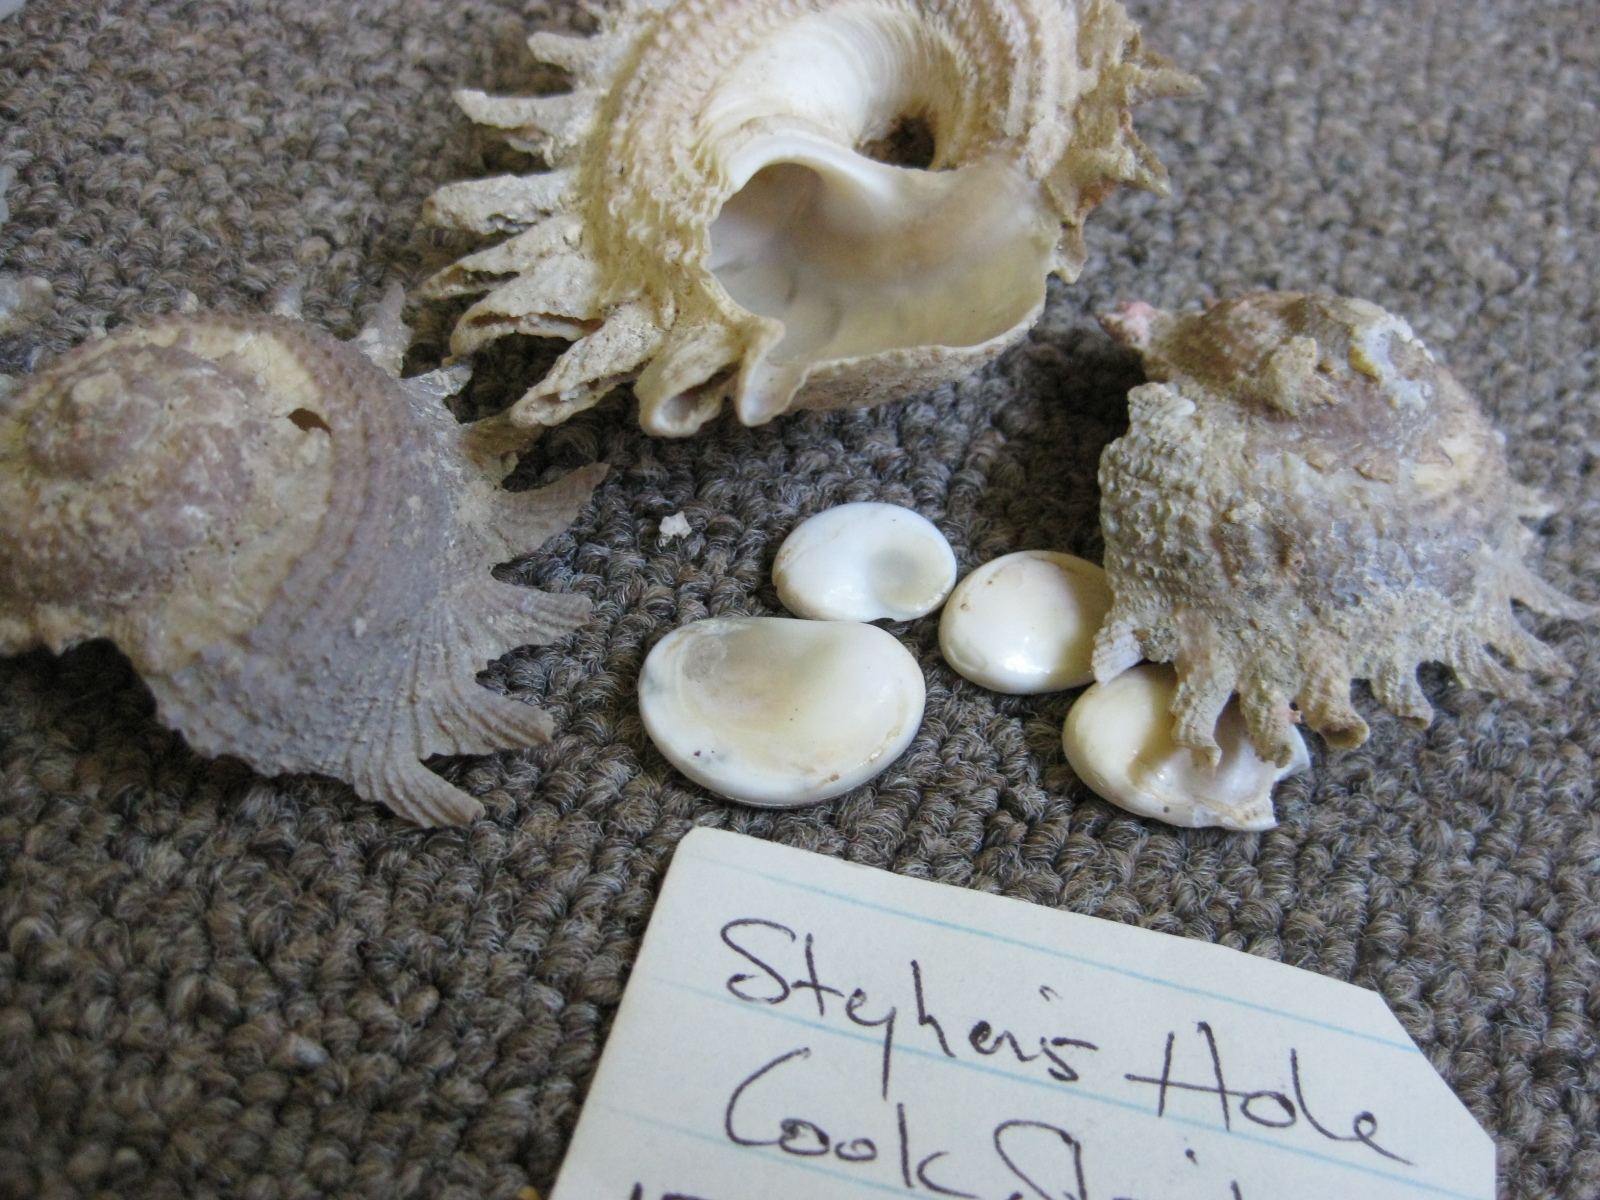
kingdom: Animalia
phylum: Mollusca
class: Gastropoda
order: Trochida
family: Turbinidae
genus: Astraea
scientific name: Astraea heliotropium
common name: Sun shell
